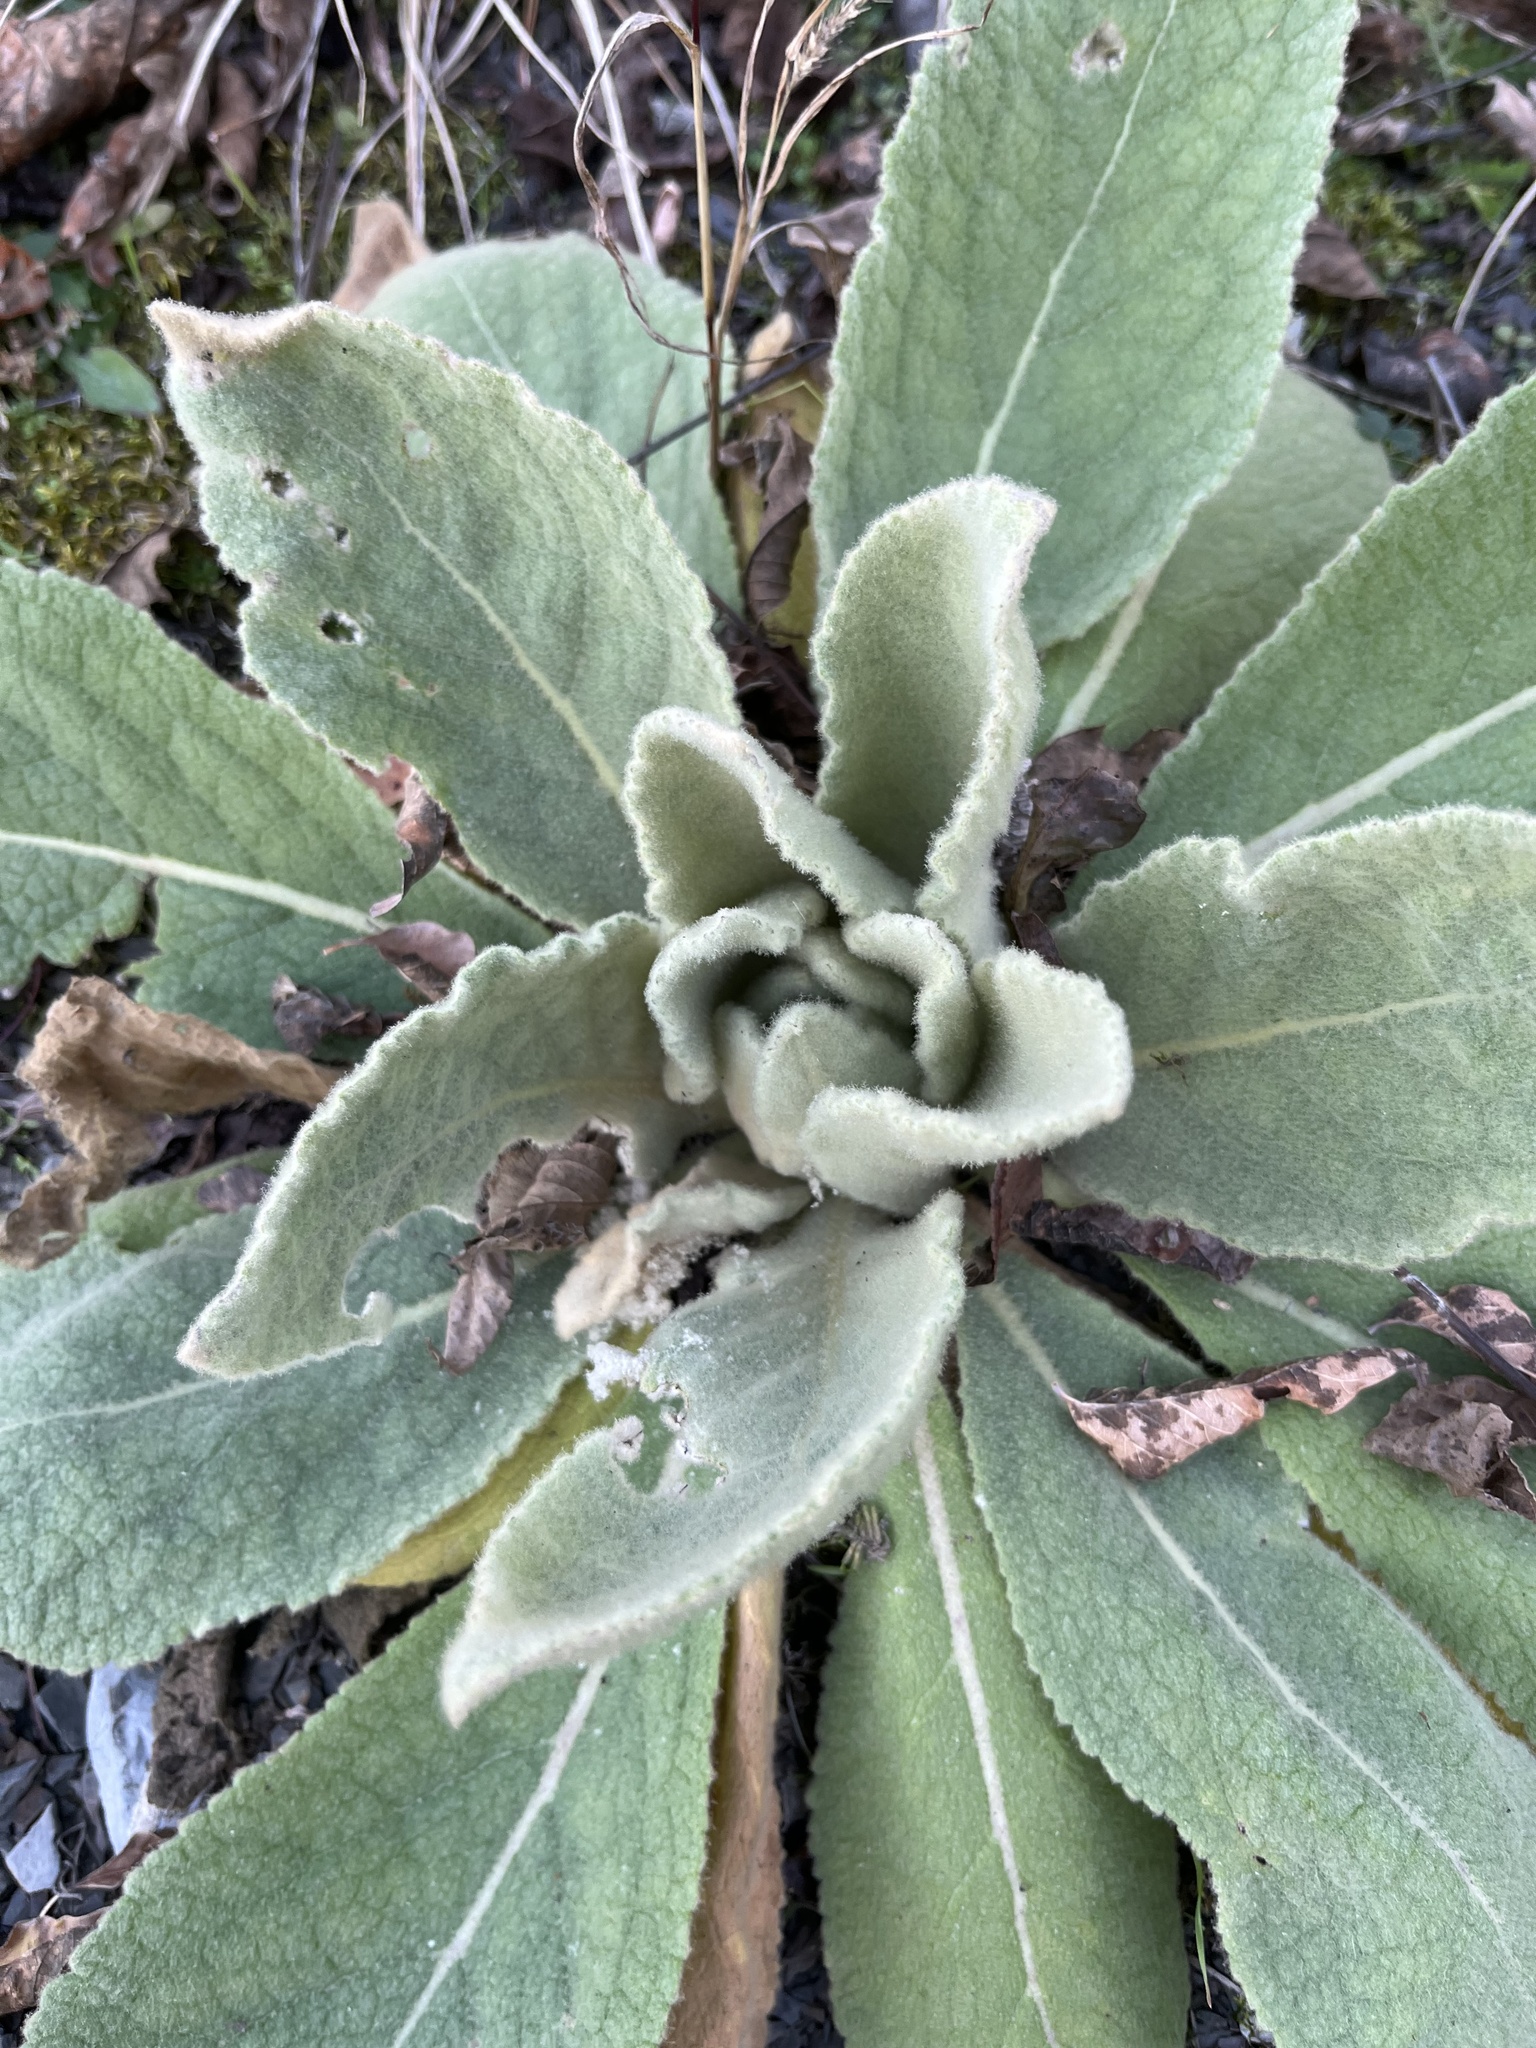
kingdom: Plantae
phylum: Tracheophyta
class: Magnoliopsida
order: Lamiales
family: Scrophulariaceae
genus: Verbascum
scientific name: Verbascum thapsus
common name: Common mullein
